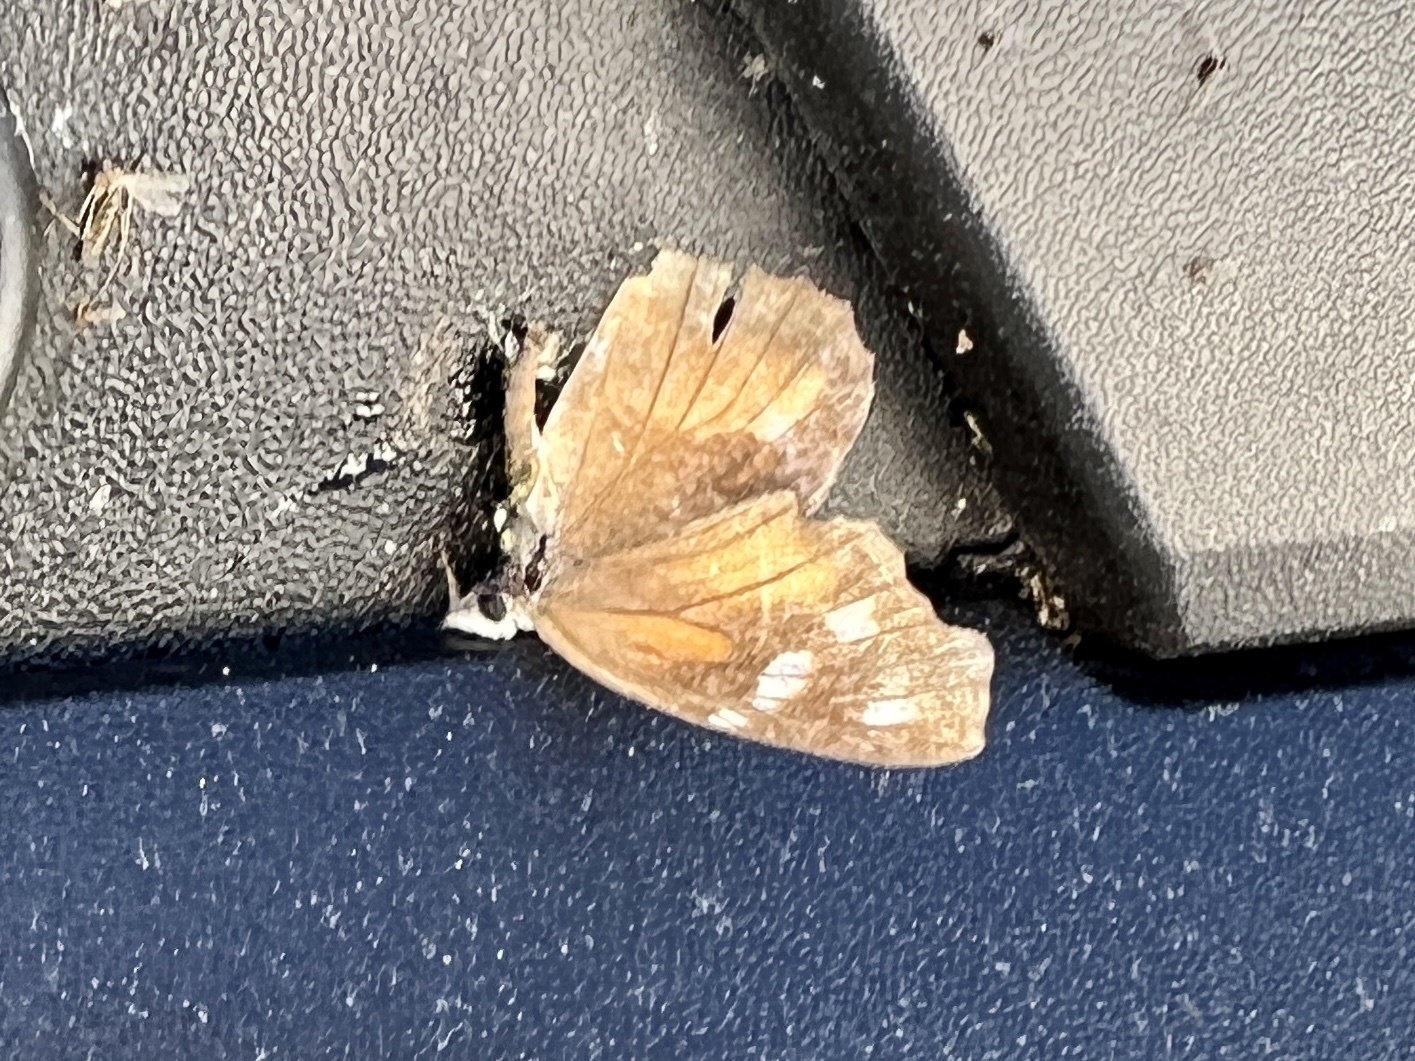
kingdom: Animalia
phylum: Arthropoda
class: Insecta
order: Lepidoptera
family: Nymphalidae
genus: Libytheana
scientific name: Libytheana carinenta
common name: American snout
